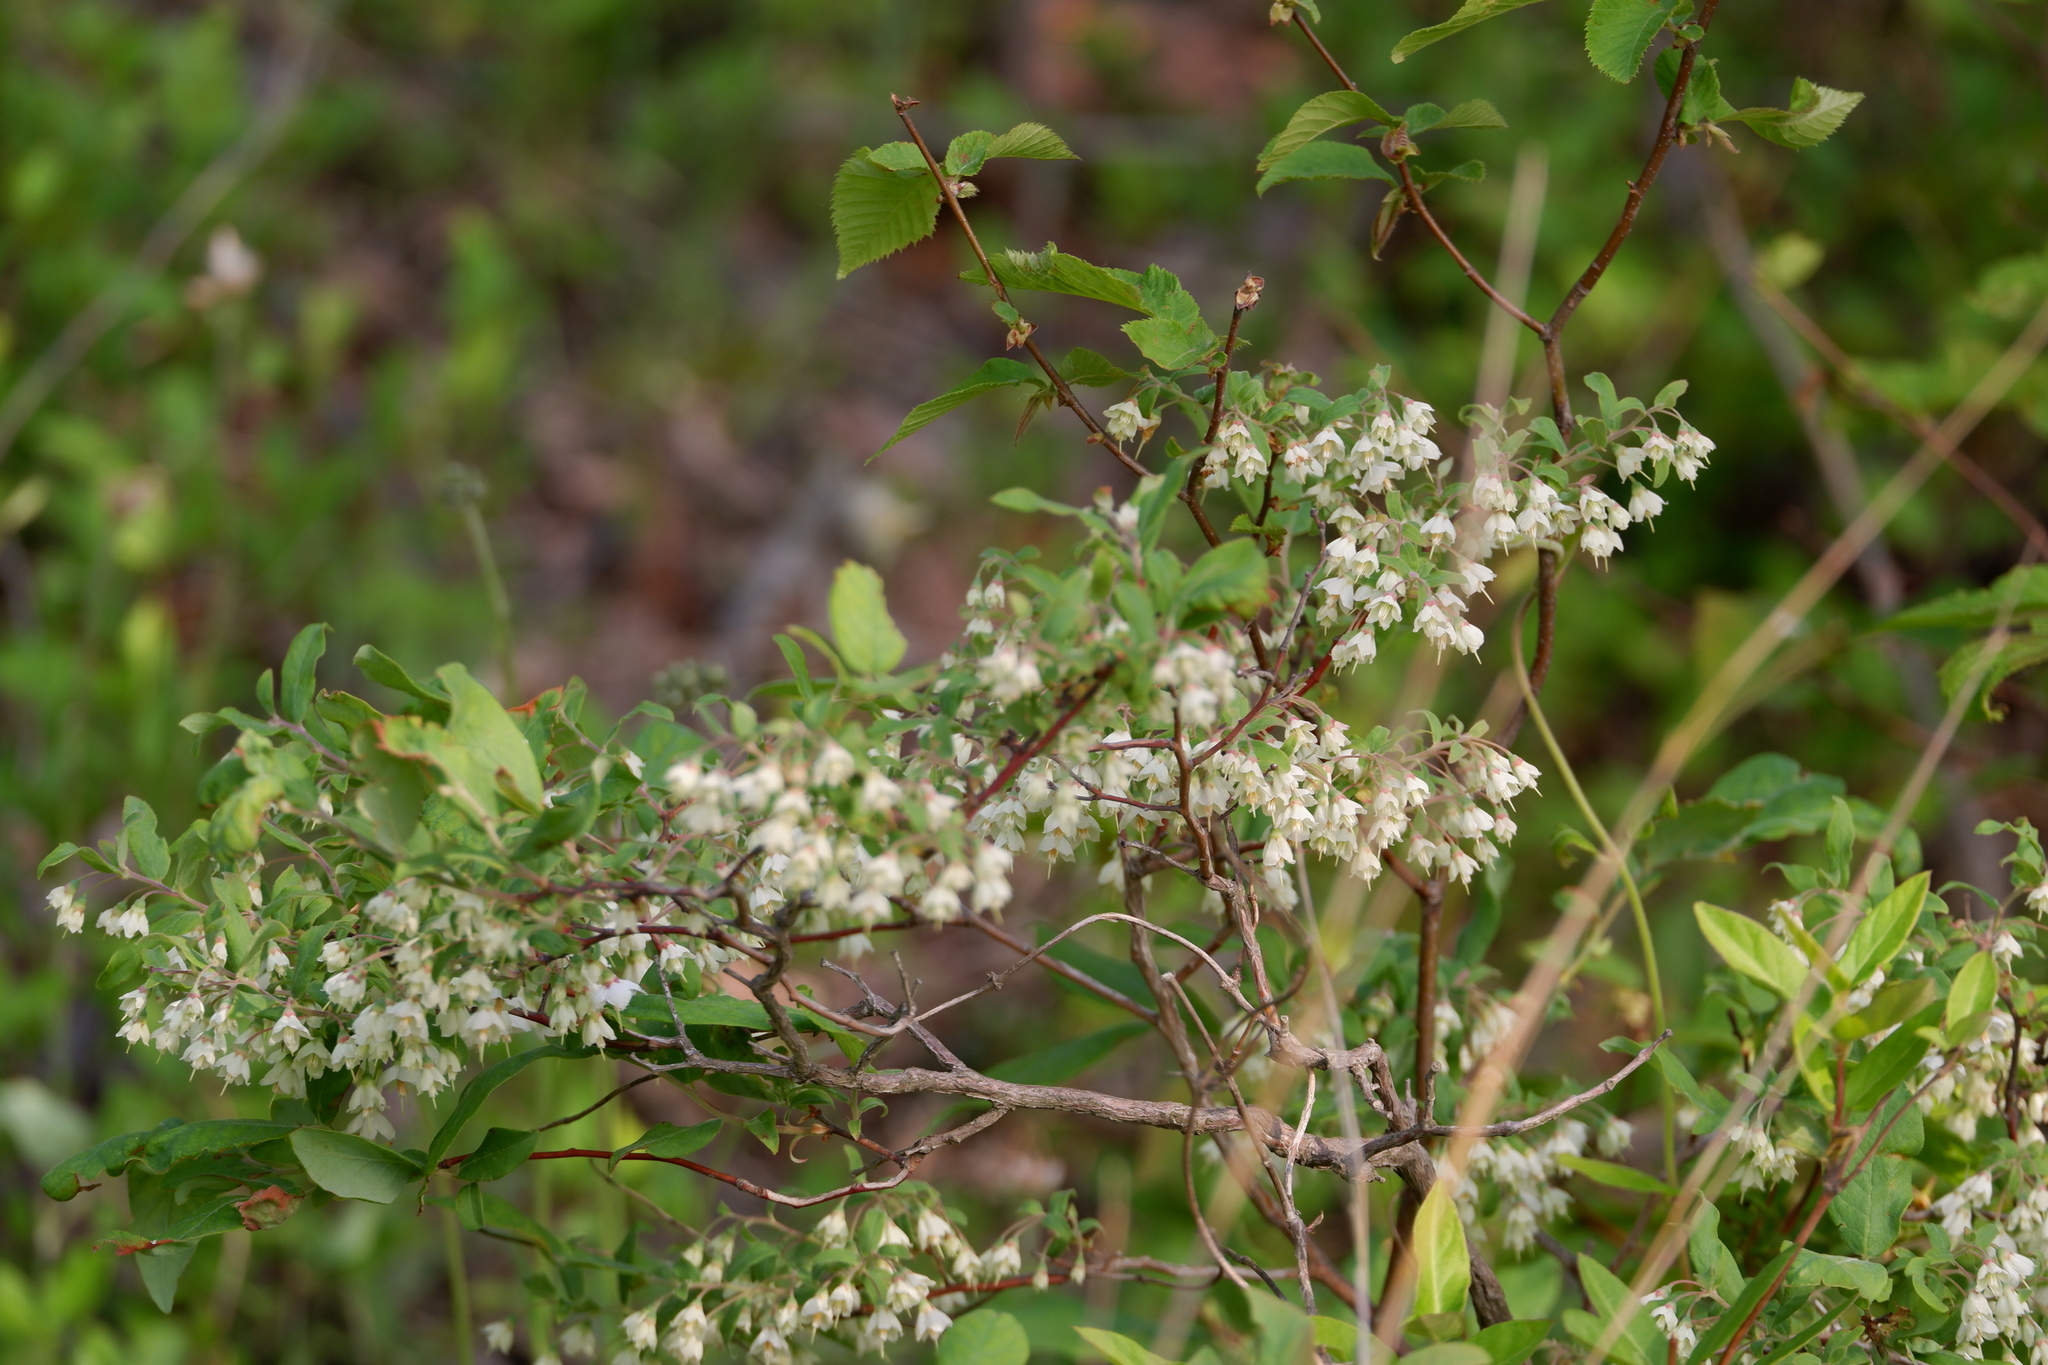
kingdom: Plantae
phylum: Tracheophyta
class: Magnoliopsida
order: Ericales
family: Ericaceae
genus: Vaccinium
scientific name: Vaccinium stamineum
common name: Deerberry
